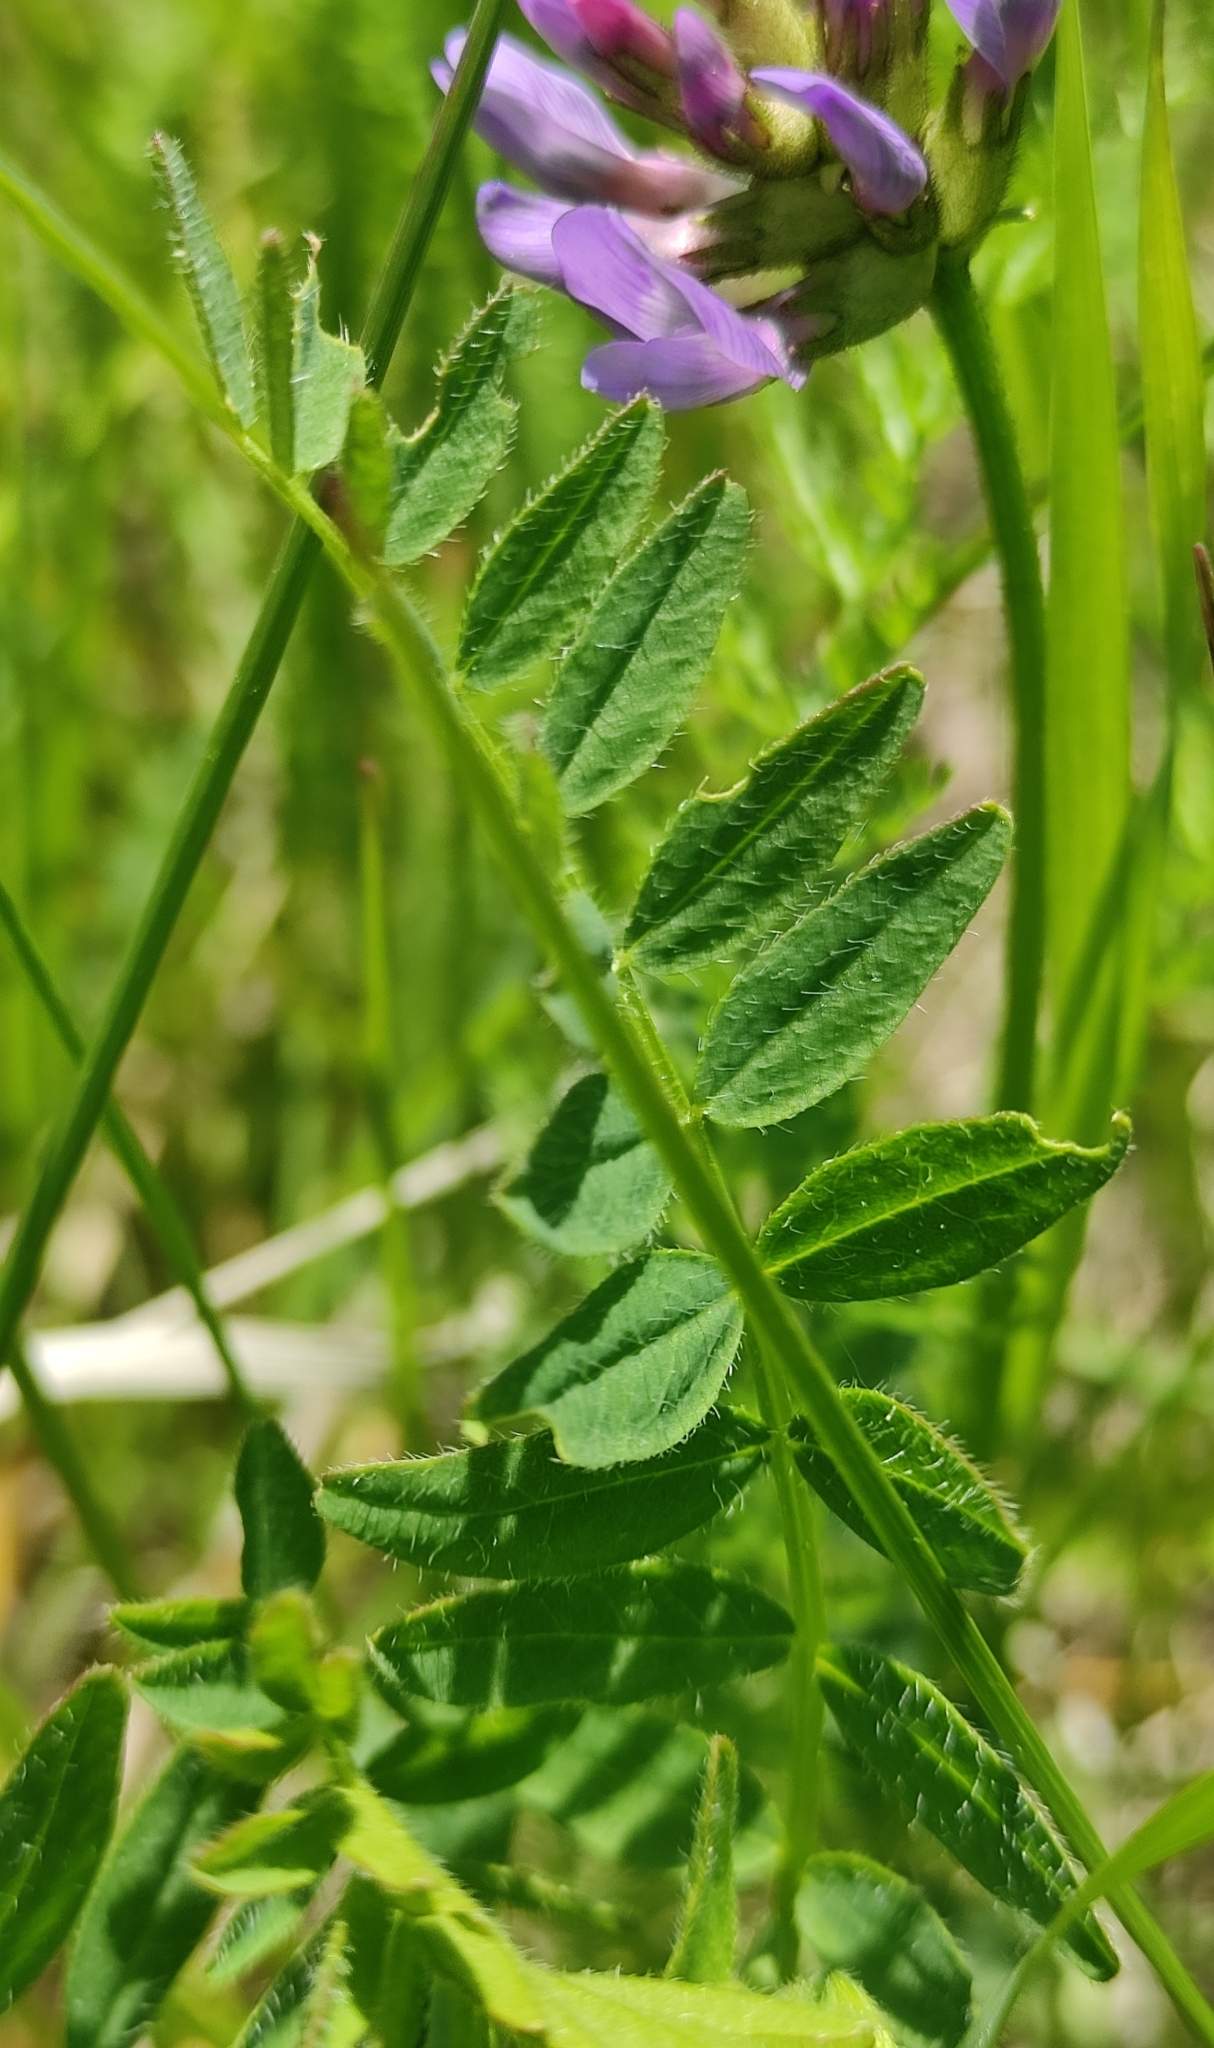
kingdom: Plantae
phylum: Tracheophyta
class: Magnoliopsida
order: Fabales
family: Fabaceae
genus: Astragalus
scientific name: Astragalus danicus
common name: Purple milk-vetch
